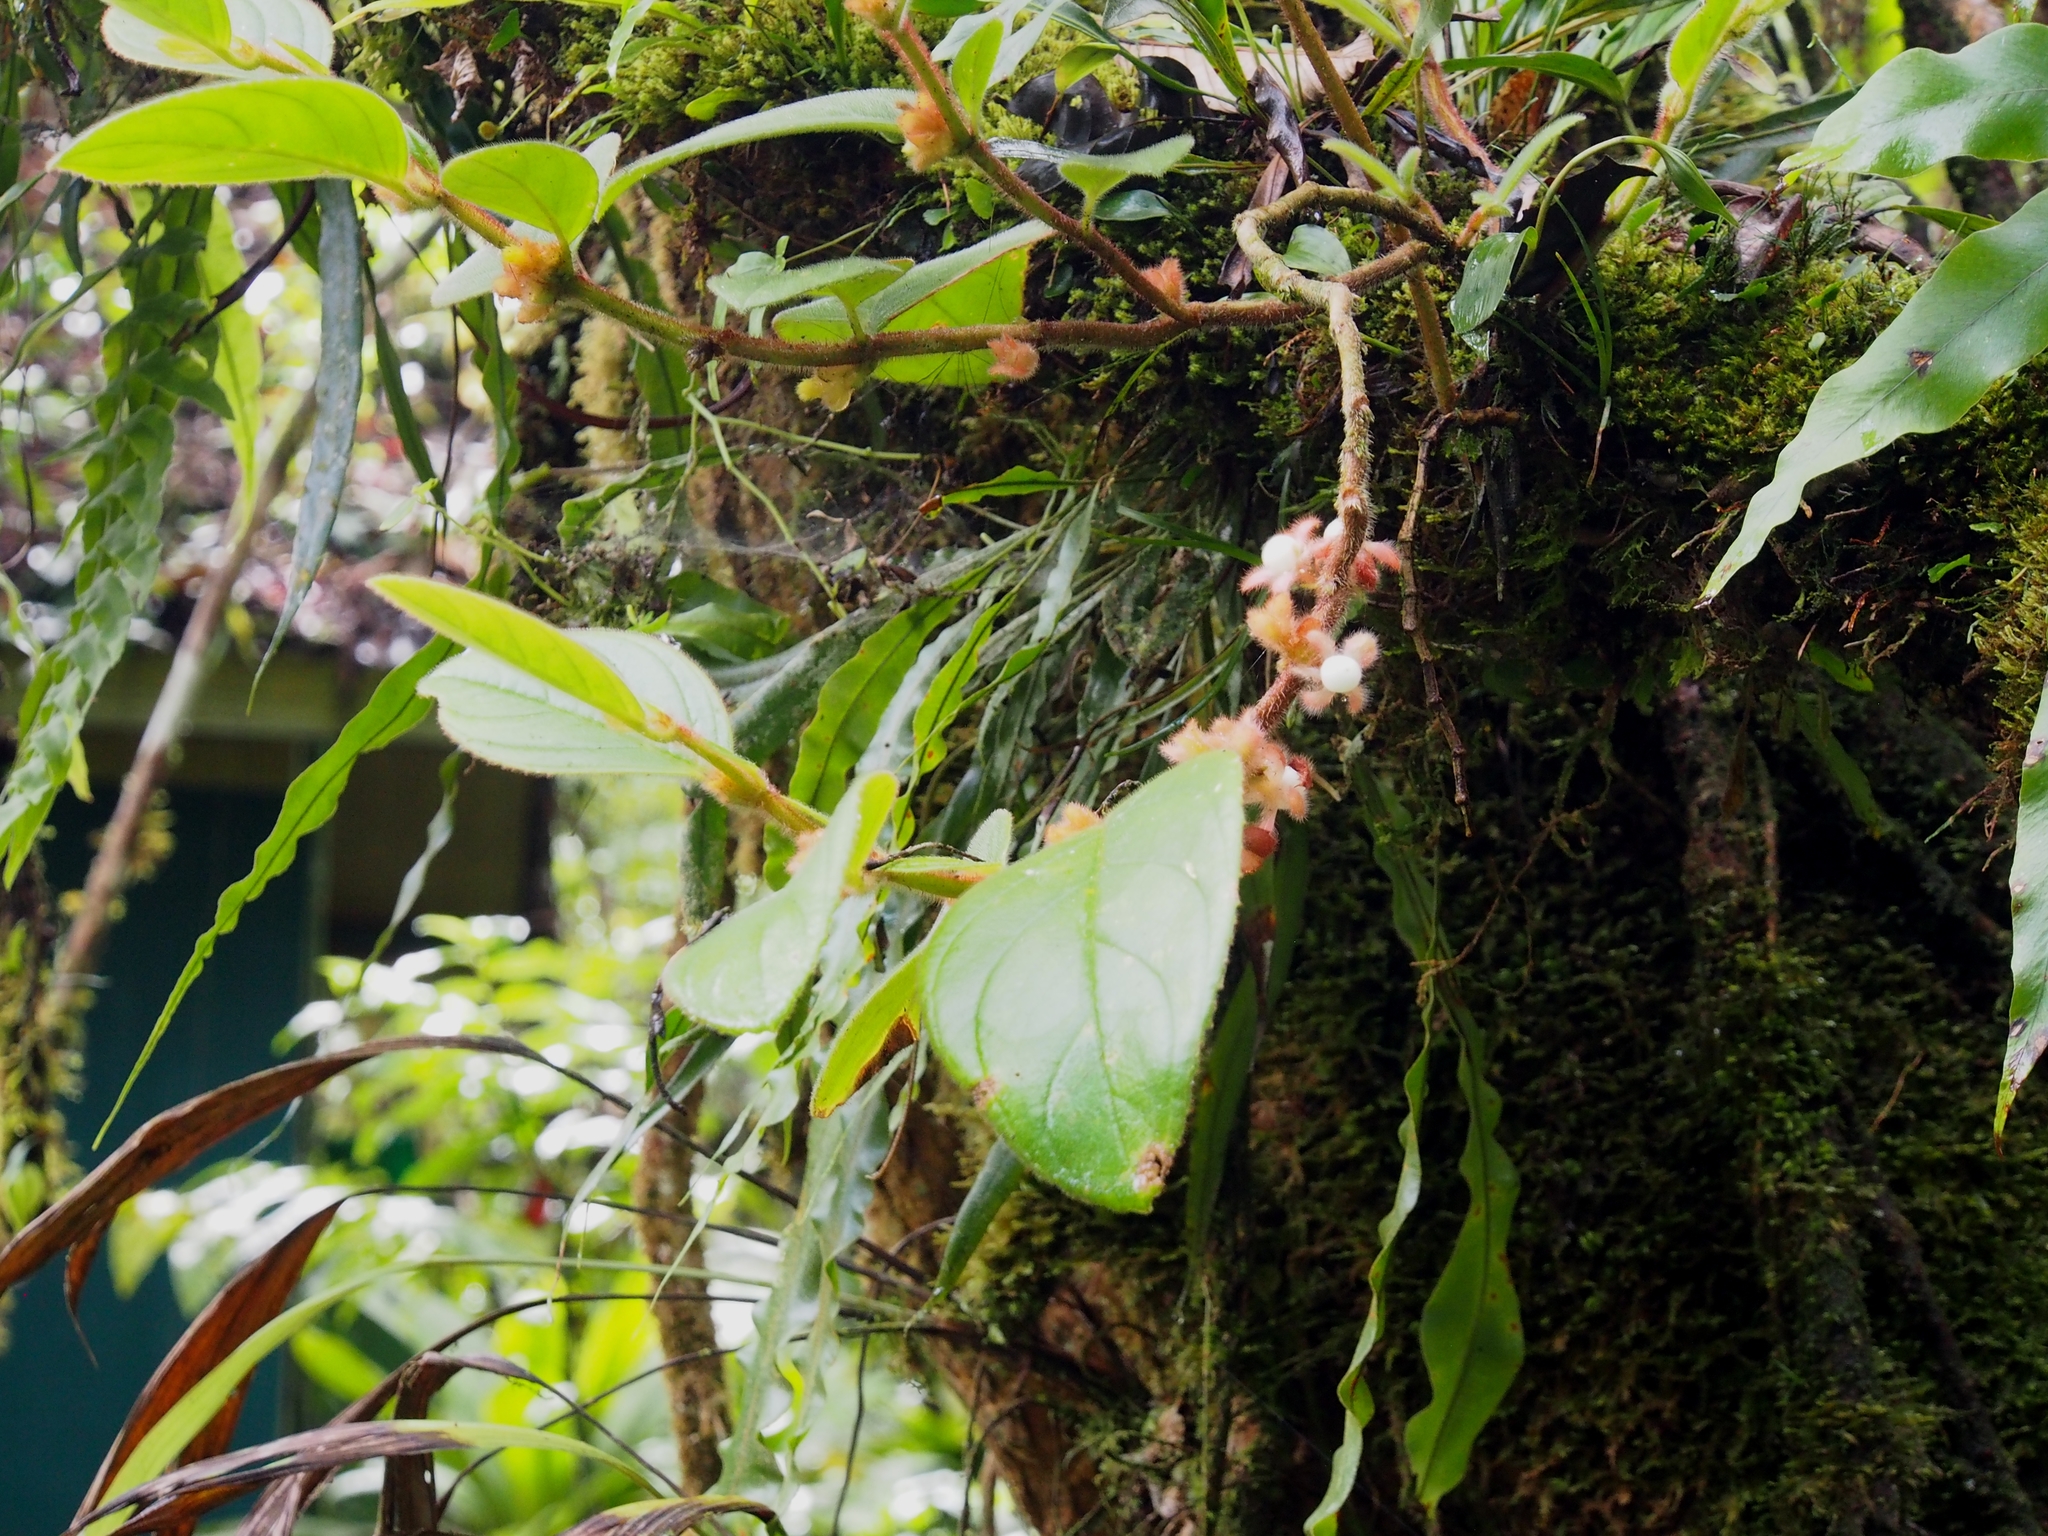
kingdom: Plantae
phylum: Tracheophyta
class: Magnoliopsida
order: Lamiales
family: Gesneriaceae
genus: Columnea
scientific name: Columnea parviflora
